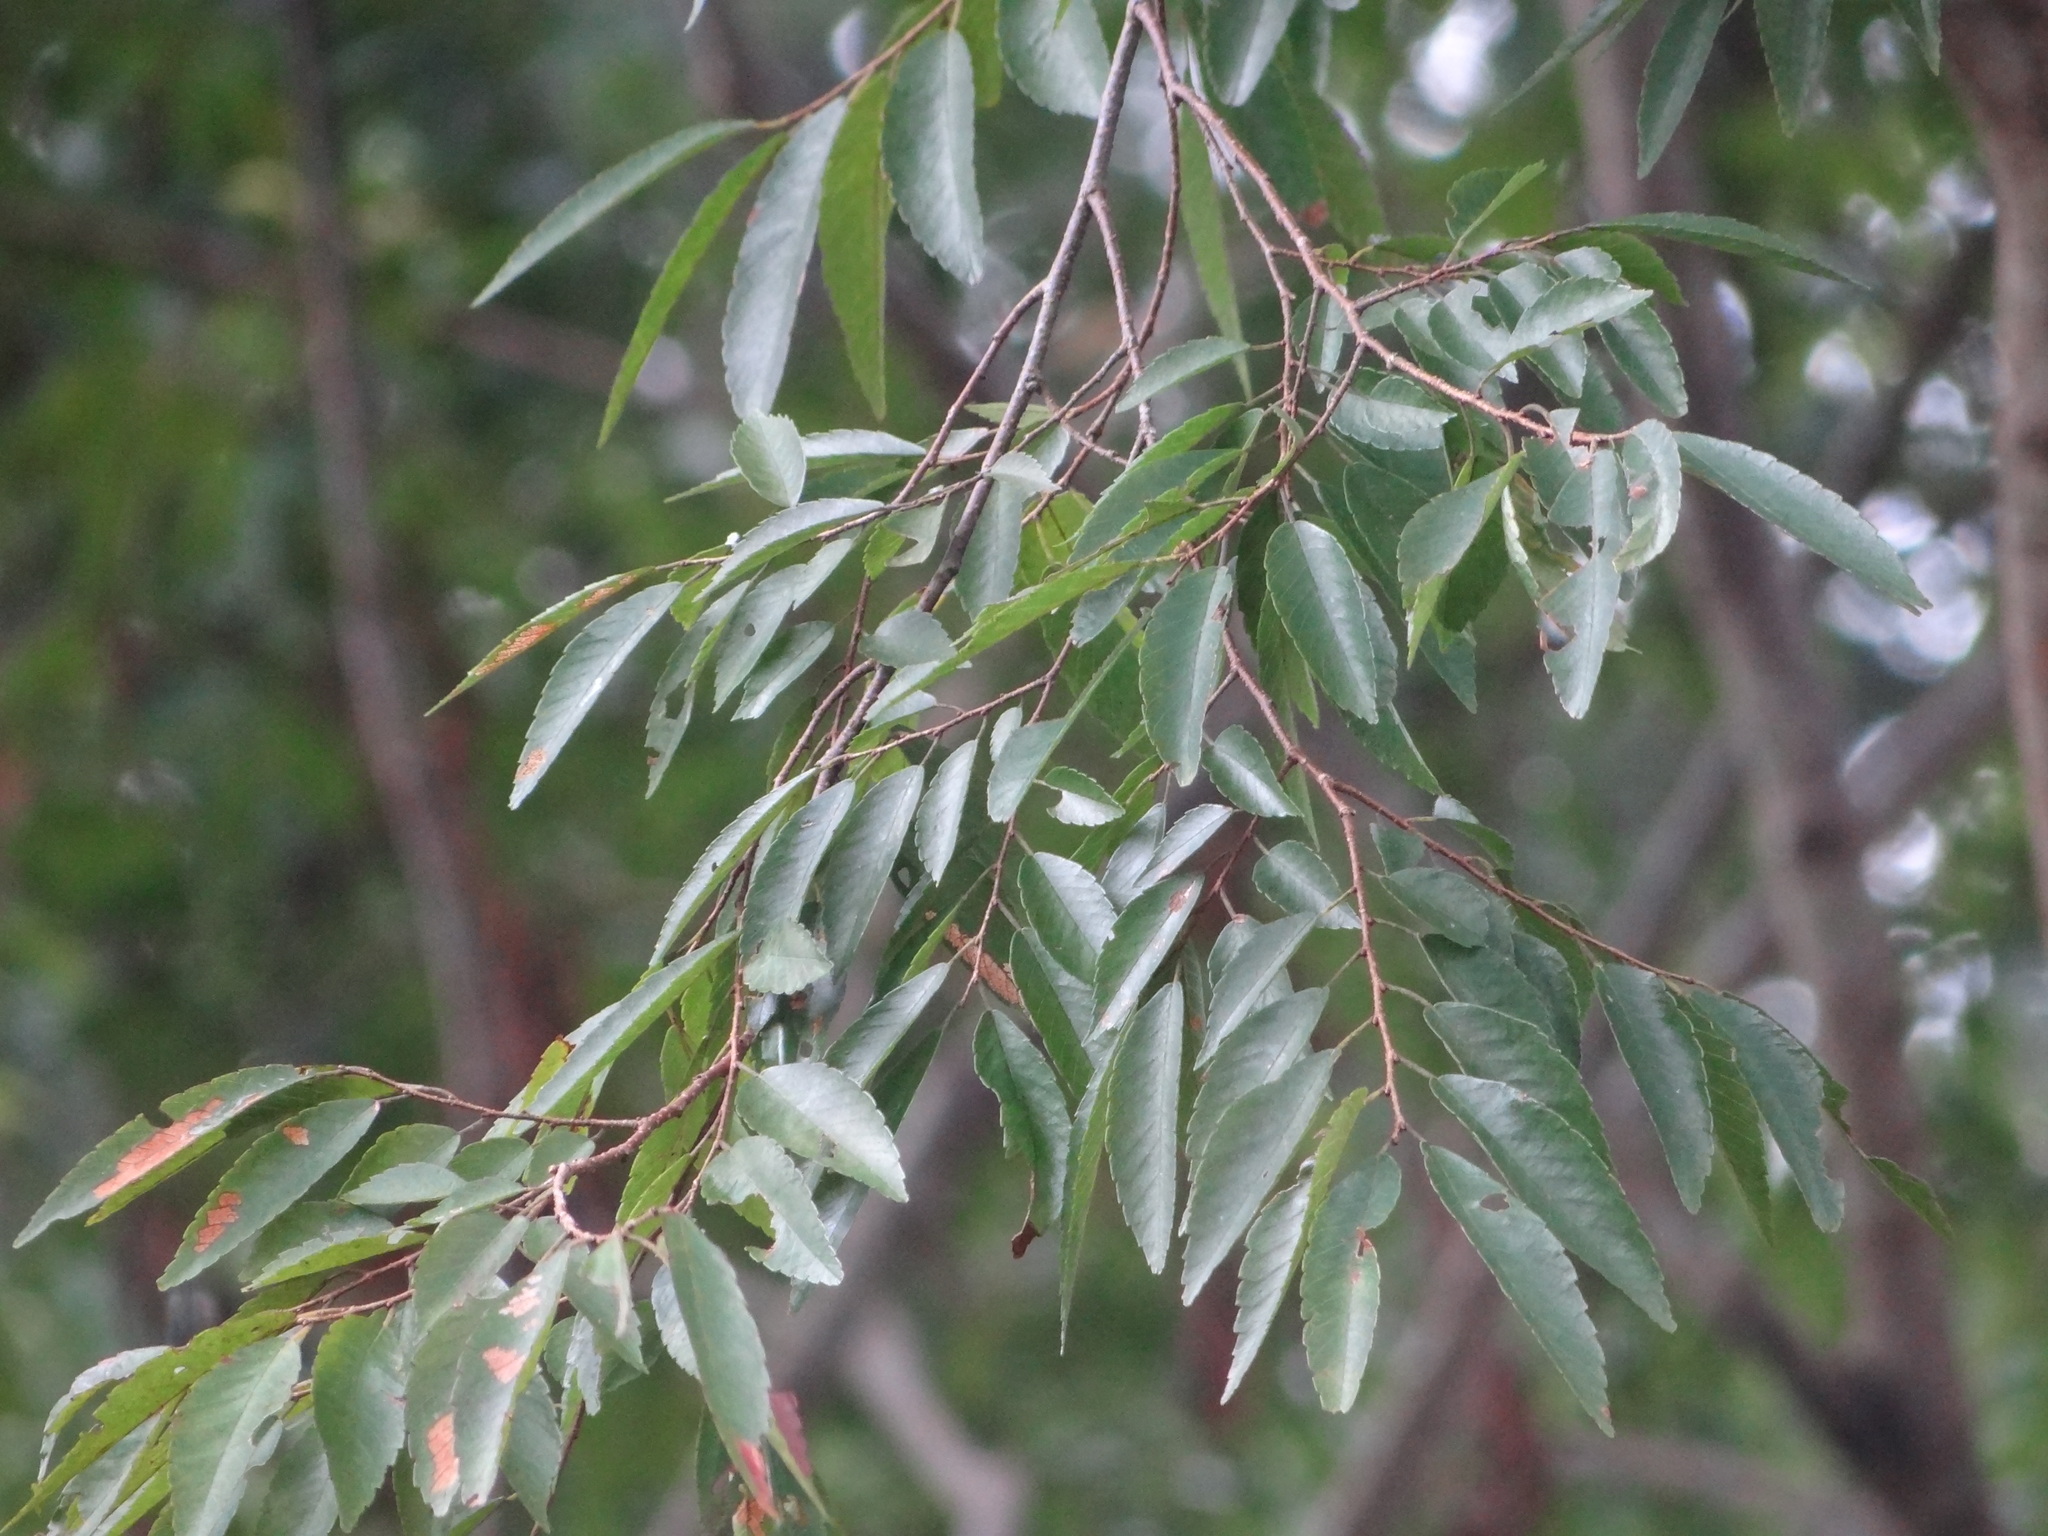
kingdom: Plantae
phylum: Tracheophyta
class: Magnoliopsida
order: Rosales
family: Ulmaceae
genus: Zelkova
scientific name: Zelkova serrata
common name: Japanese zelkova
